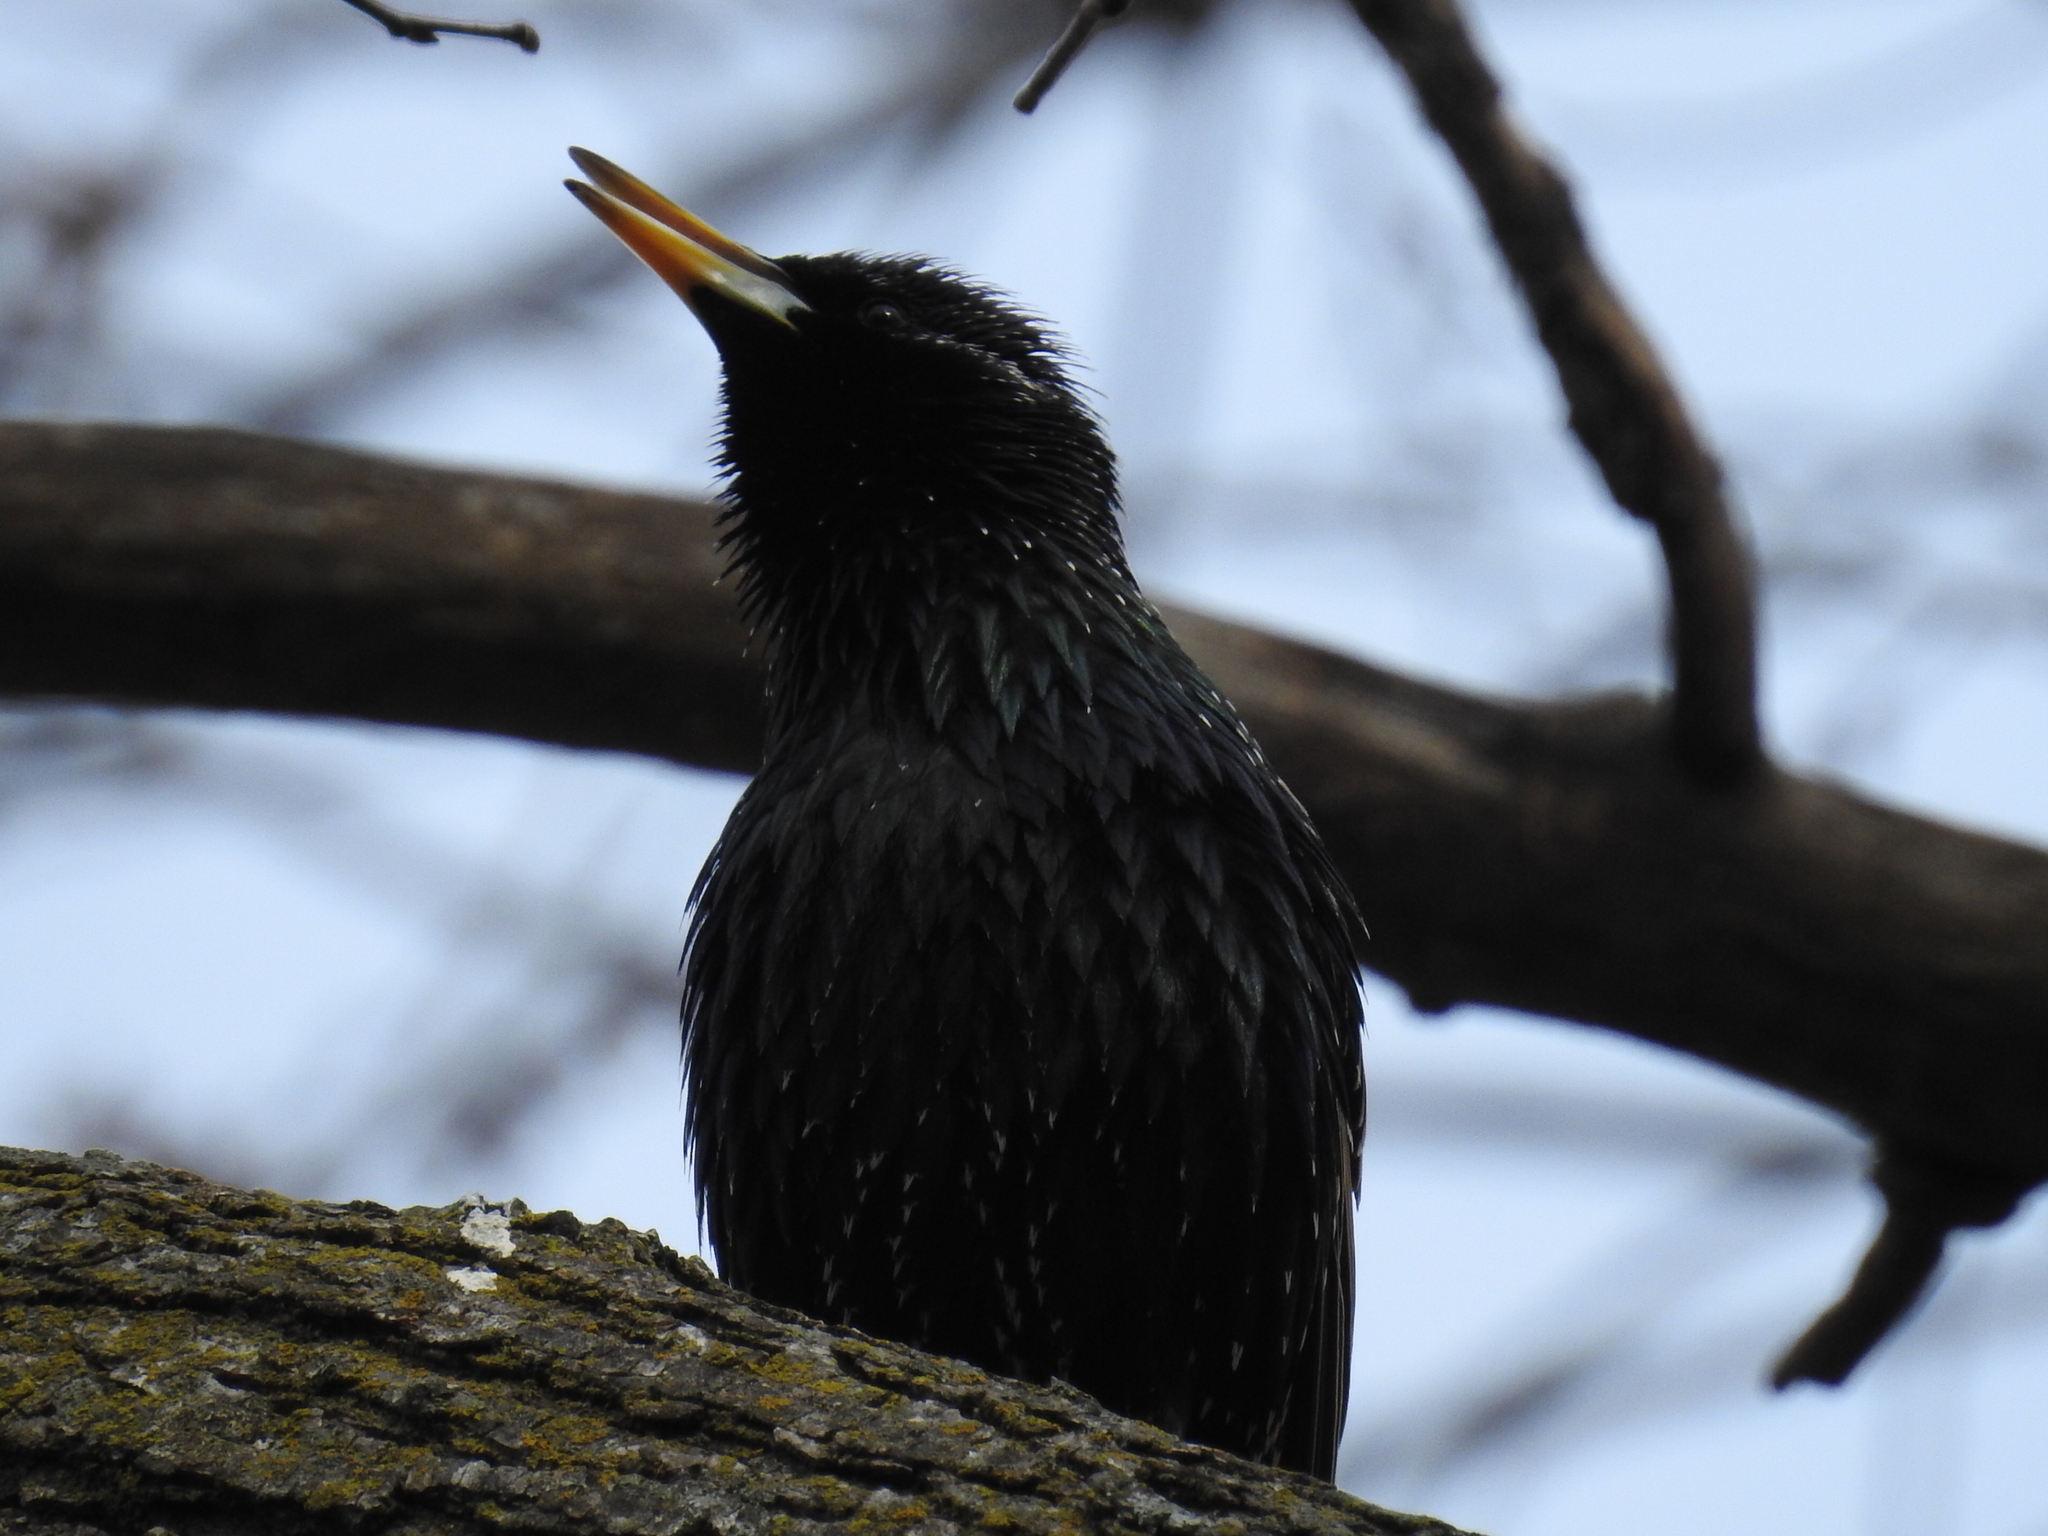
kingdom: Animalia
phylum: Chordata
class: Aves
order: Passeriformes
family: Sturnidae
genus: Sturnus
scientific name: Sturnus vulgaris
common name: Common starling
